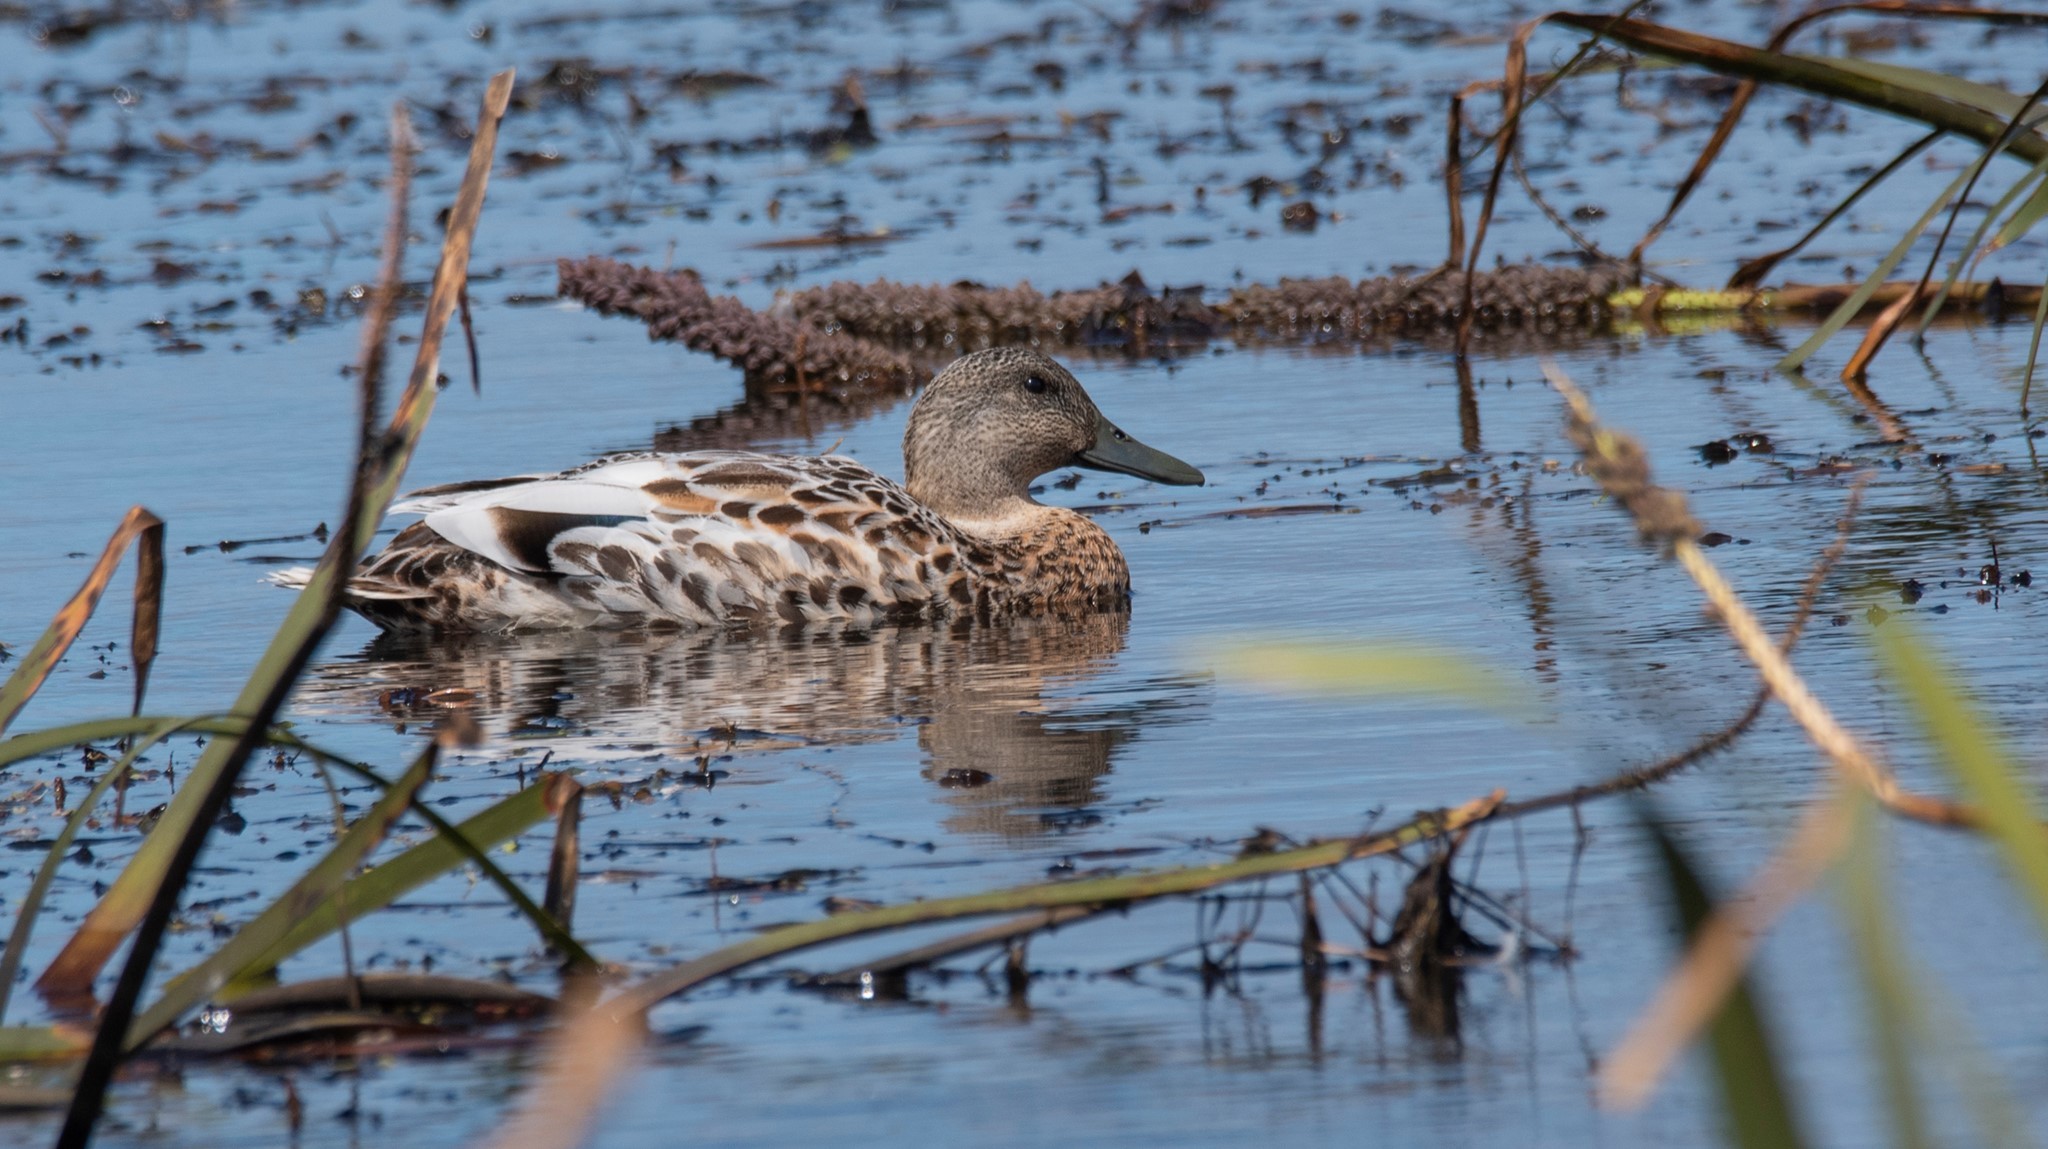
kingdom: Animalia
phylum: Chordata
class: Aves
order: Anseriformes
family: Anatidae
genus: Anas
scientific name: Anas
